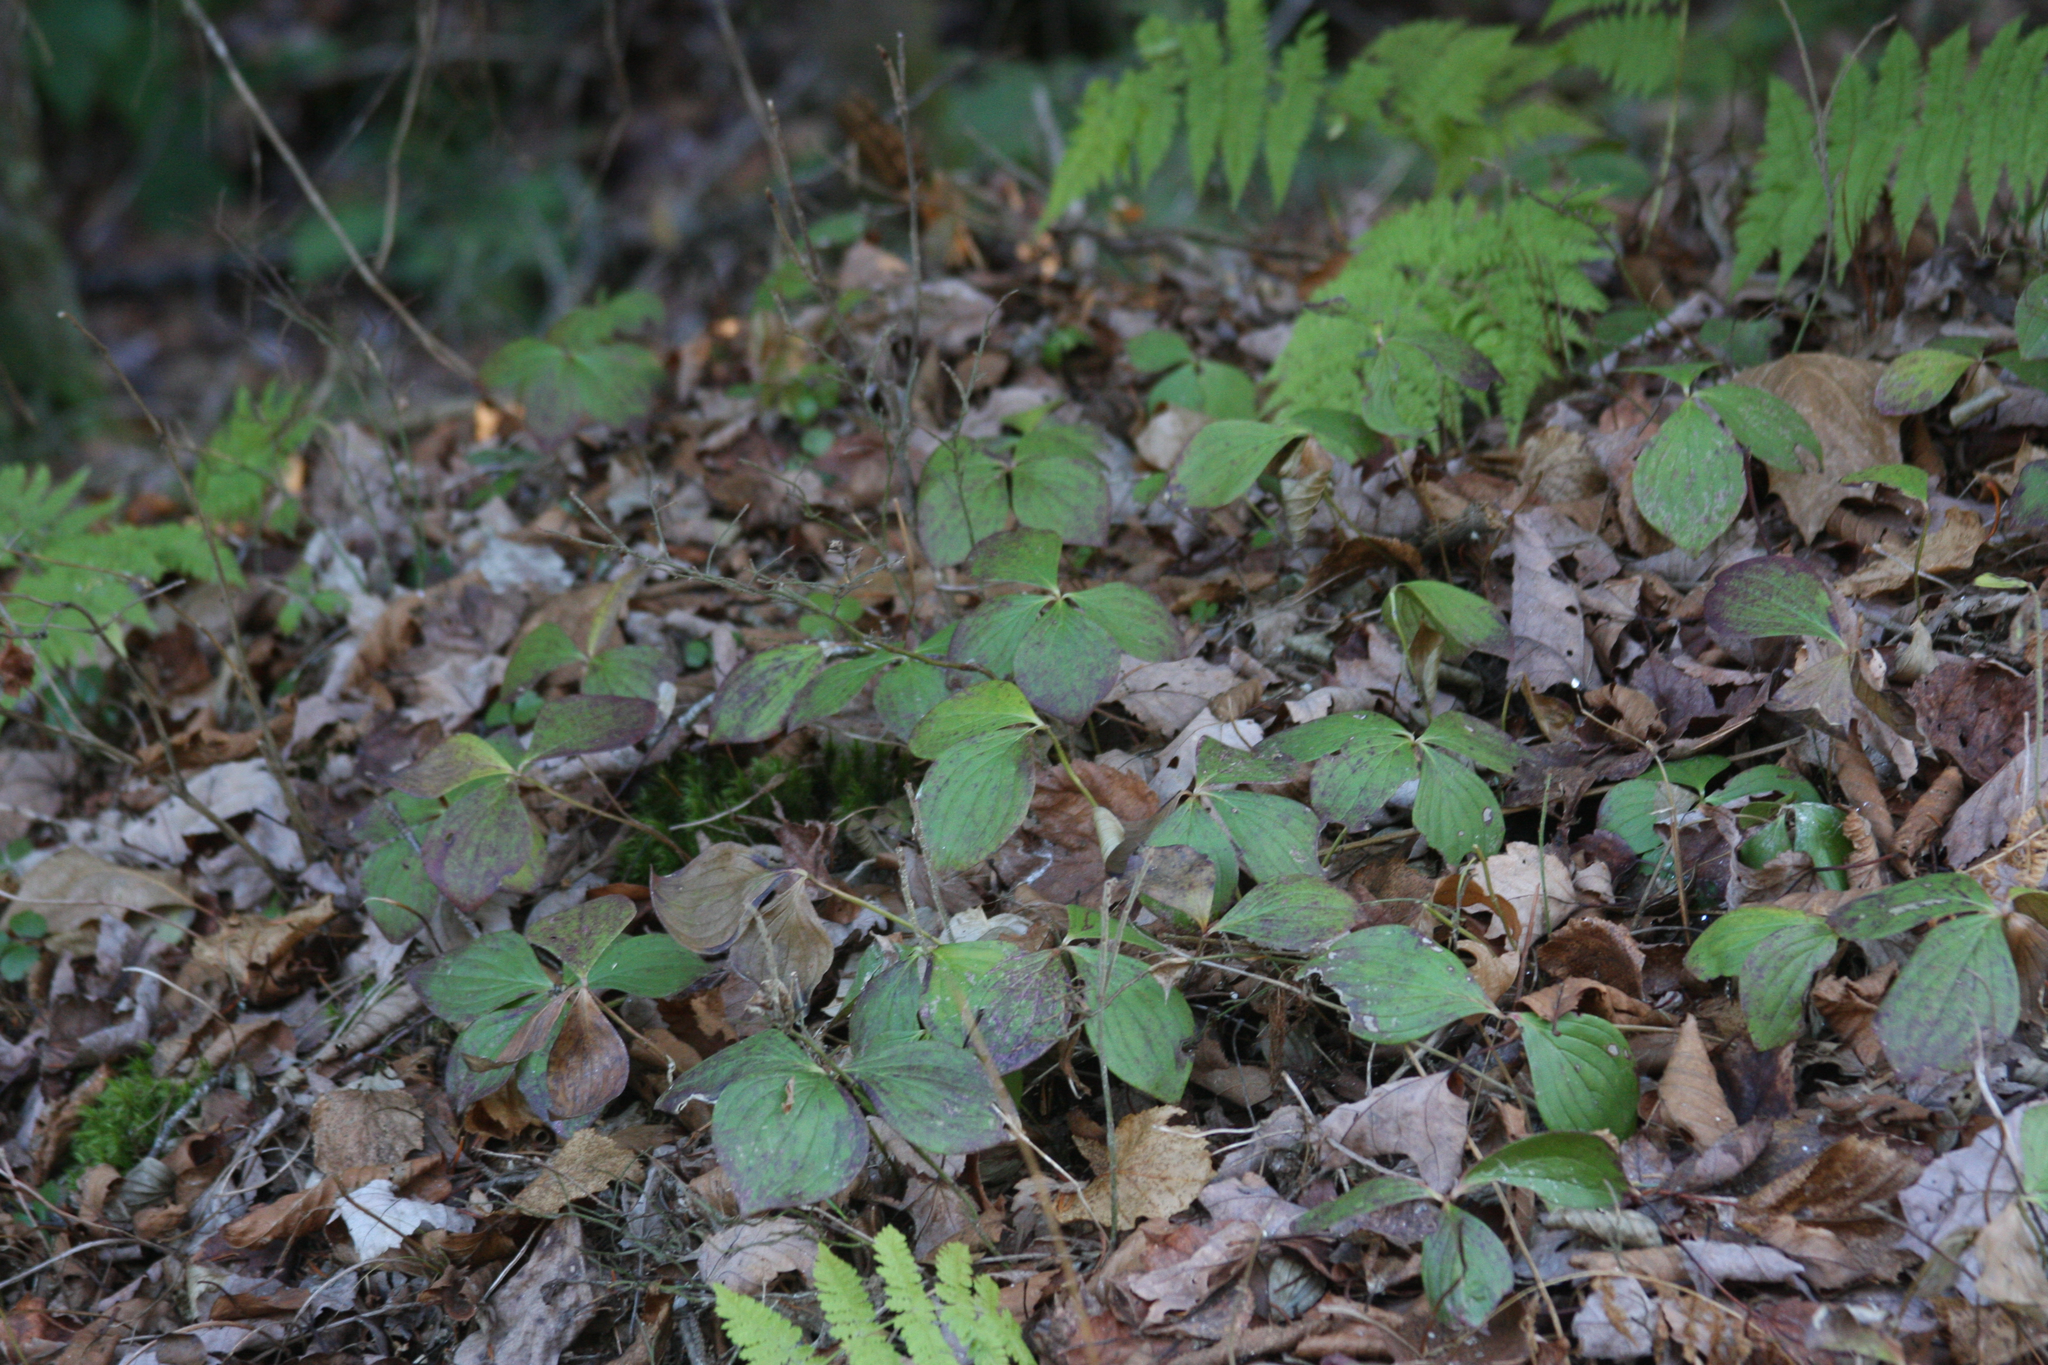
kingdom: Plantae
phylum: Tracheophyta
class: Magnoliopsida
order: Cornales
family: Cornaceae
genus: Cornus
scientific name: Cornus canadensis
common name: Creeping dogwood
